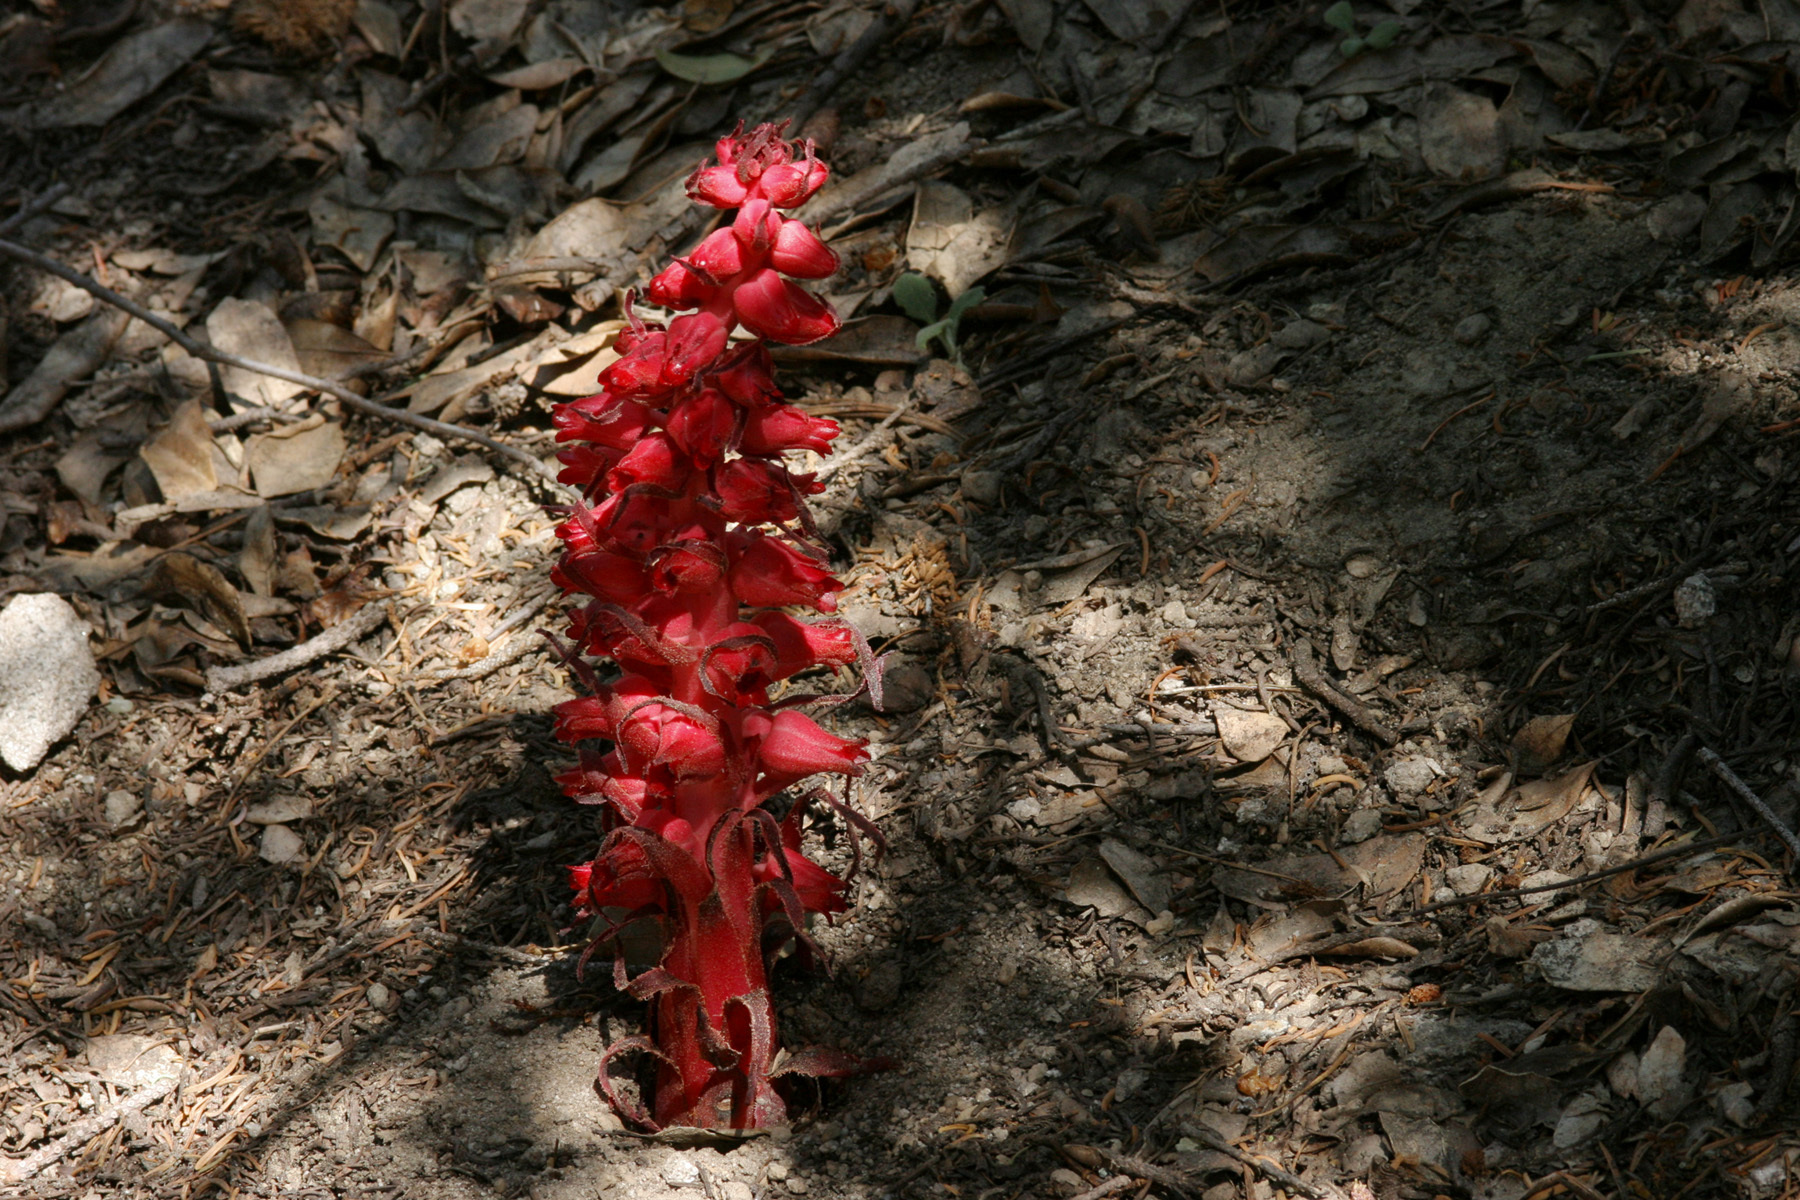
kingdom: Plantae
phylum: Tracheophyta
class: Magnoliopsida
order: Ericales
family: Ericaceae
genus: Sarcodes
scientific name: Sarcodes sanguinea
